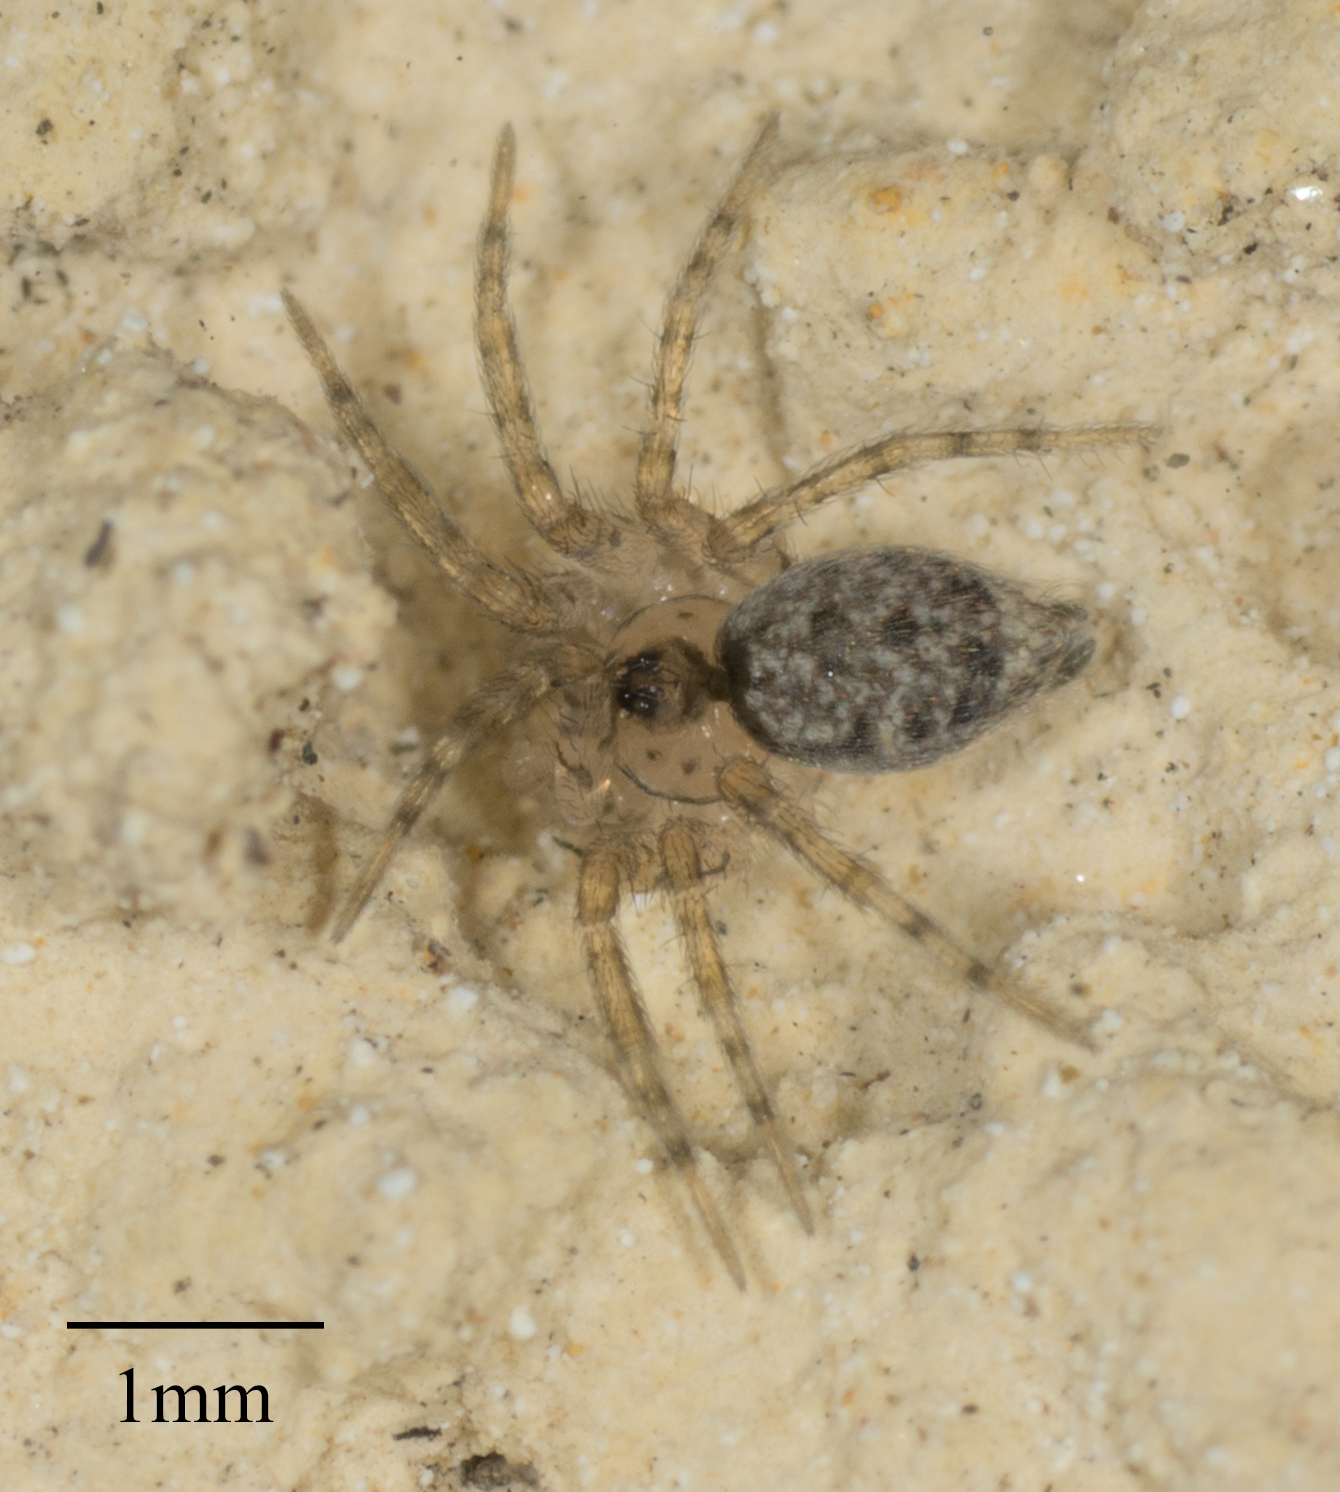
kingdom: Animalia
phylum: Arthropoda
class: Arachnida
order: Araneae
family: Oecobiidae
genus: Oecobius
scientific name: Oecobius navus
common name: Flatmesh weaver
